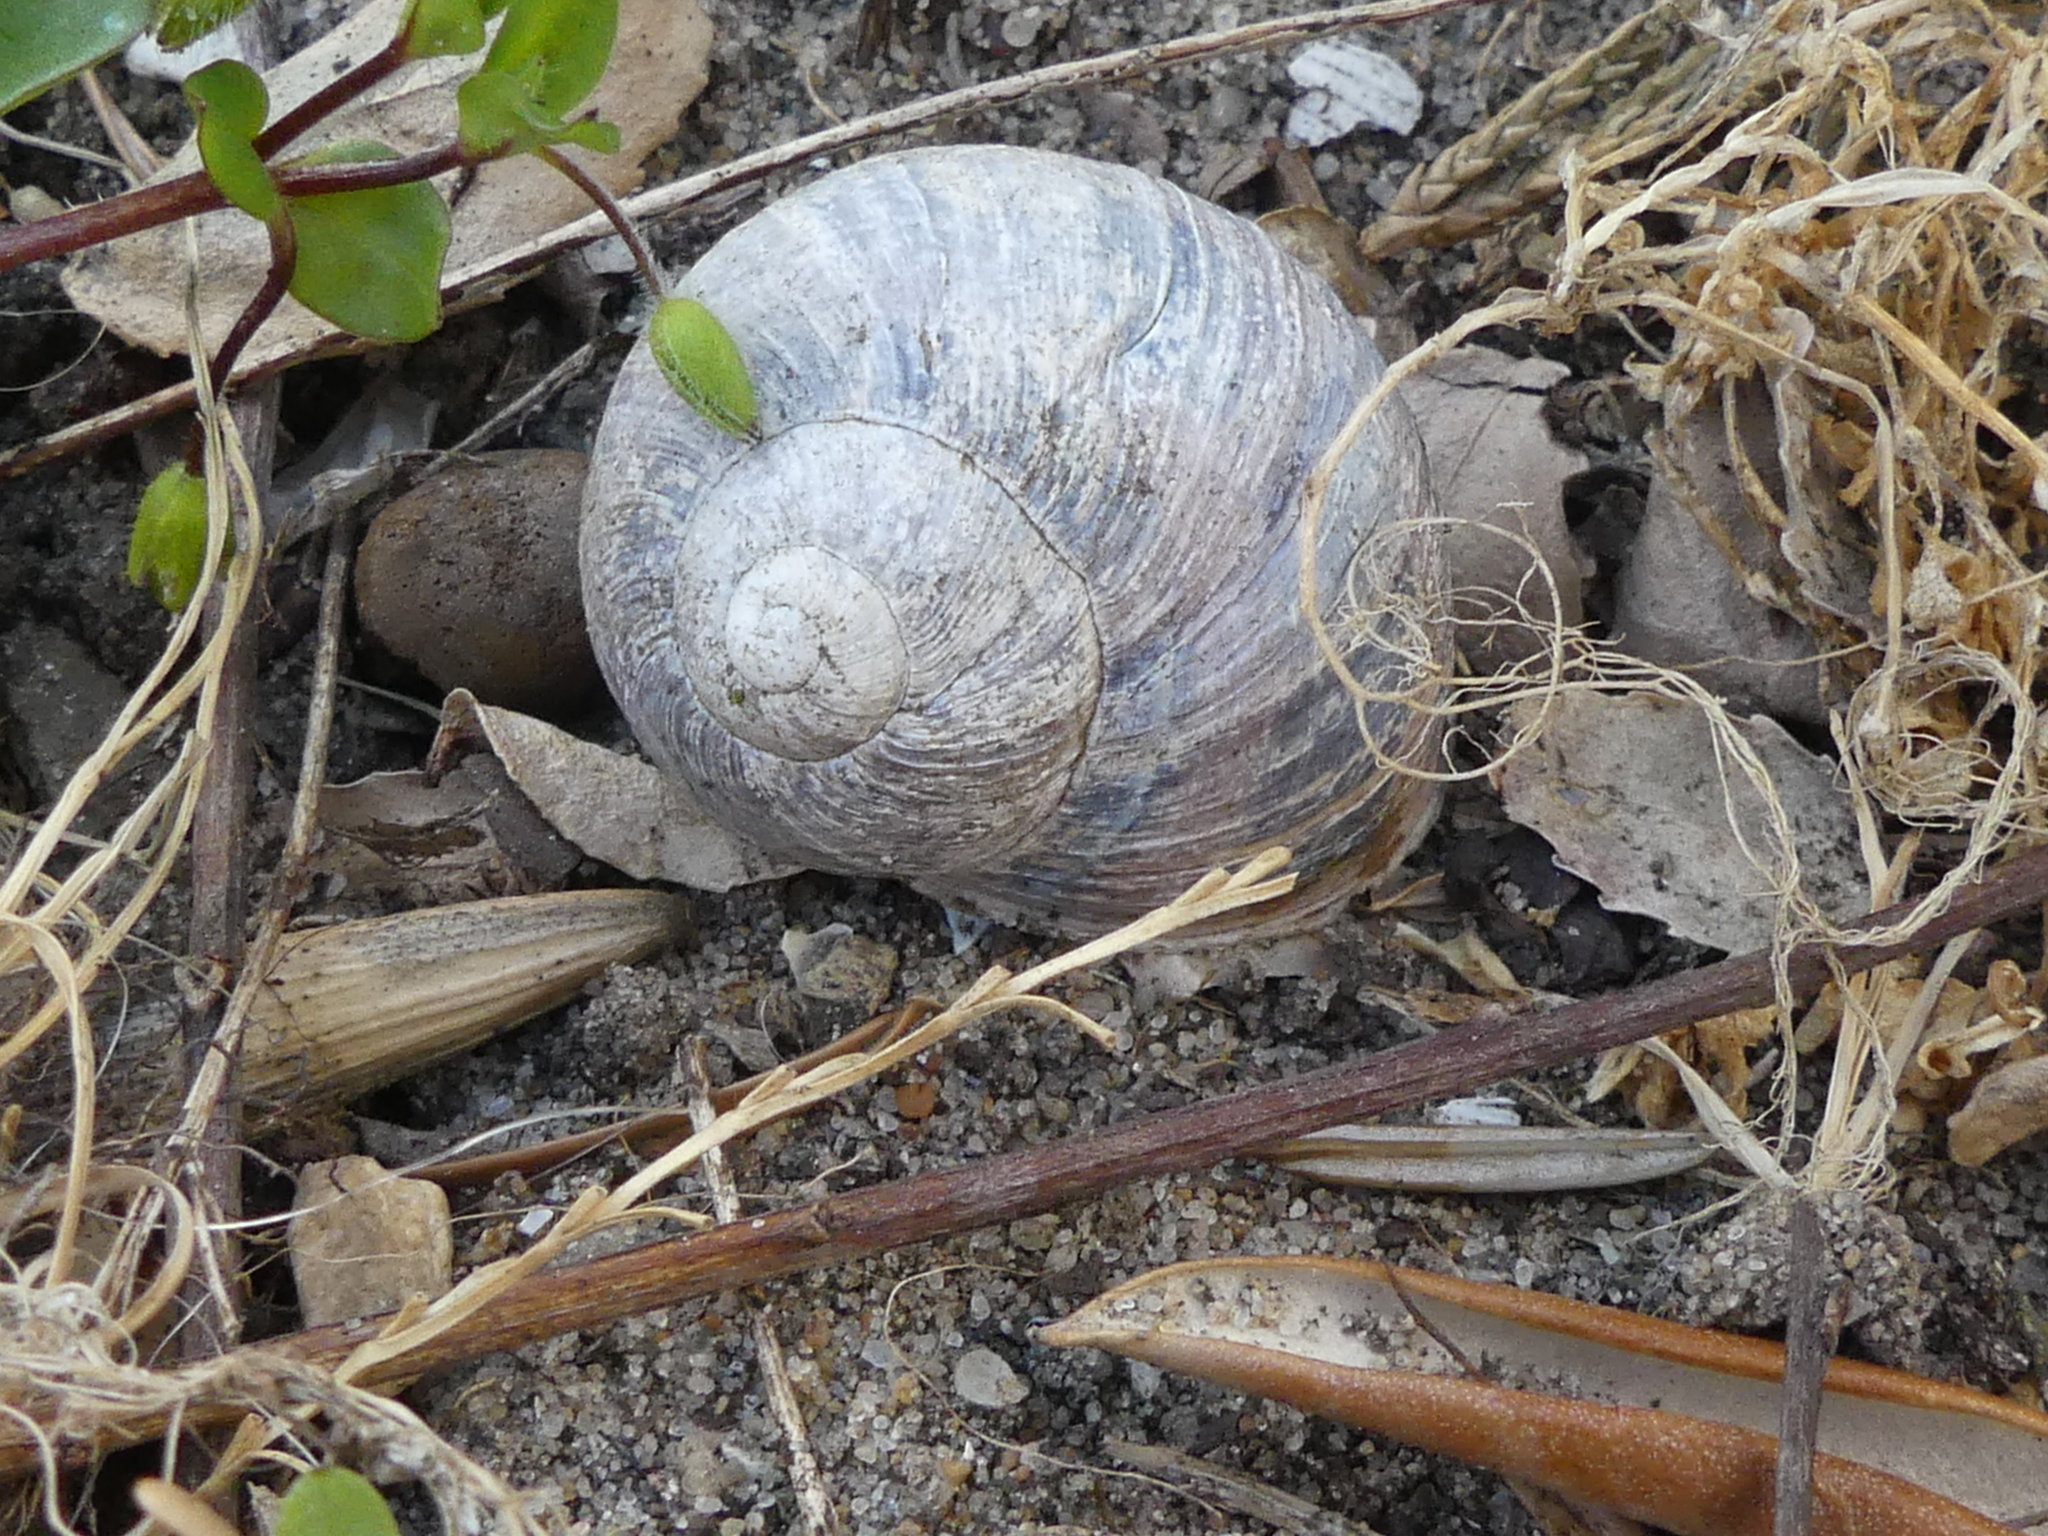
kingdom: Animalia
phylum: Mollusca
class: Gastropoda
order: Stylommatophora
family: Helicidae
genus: Helix
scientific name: Helix pomatia
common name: Roman snail
